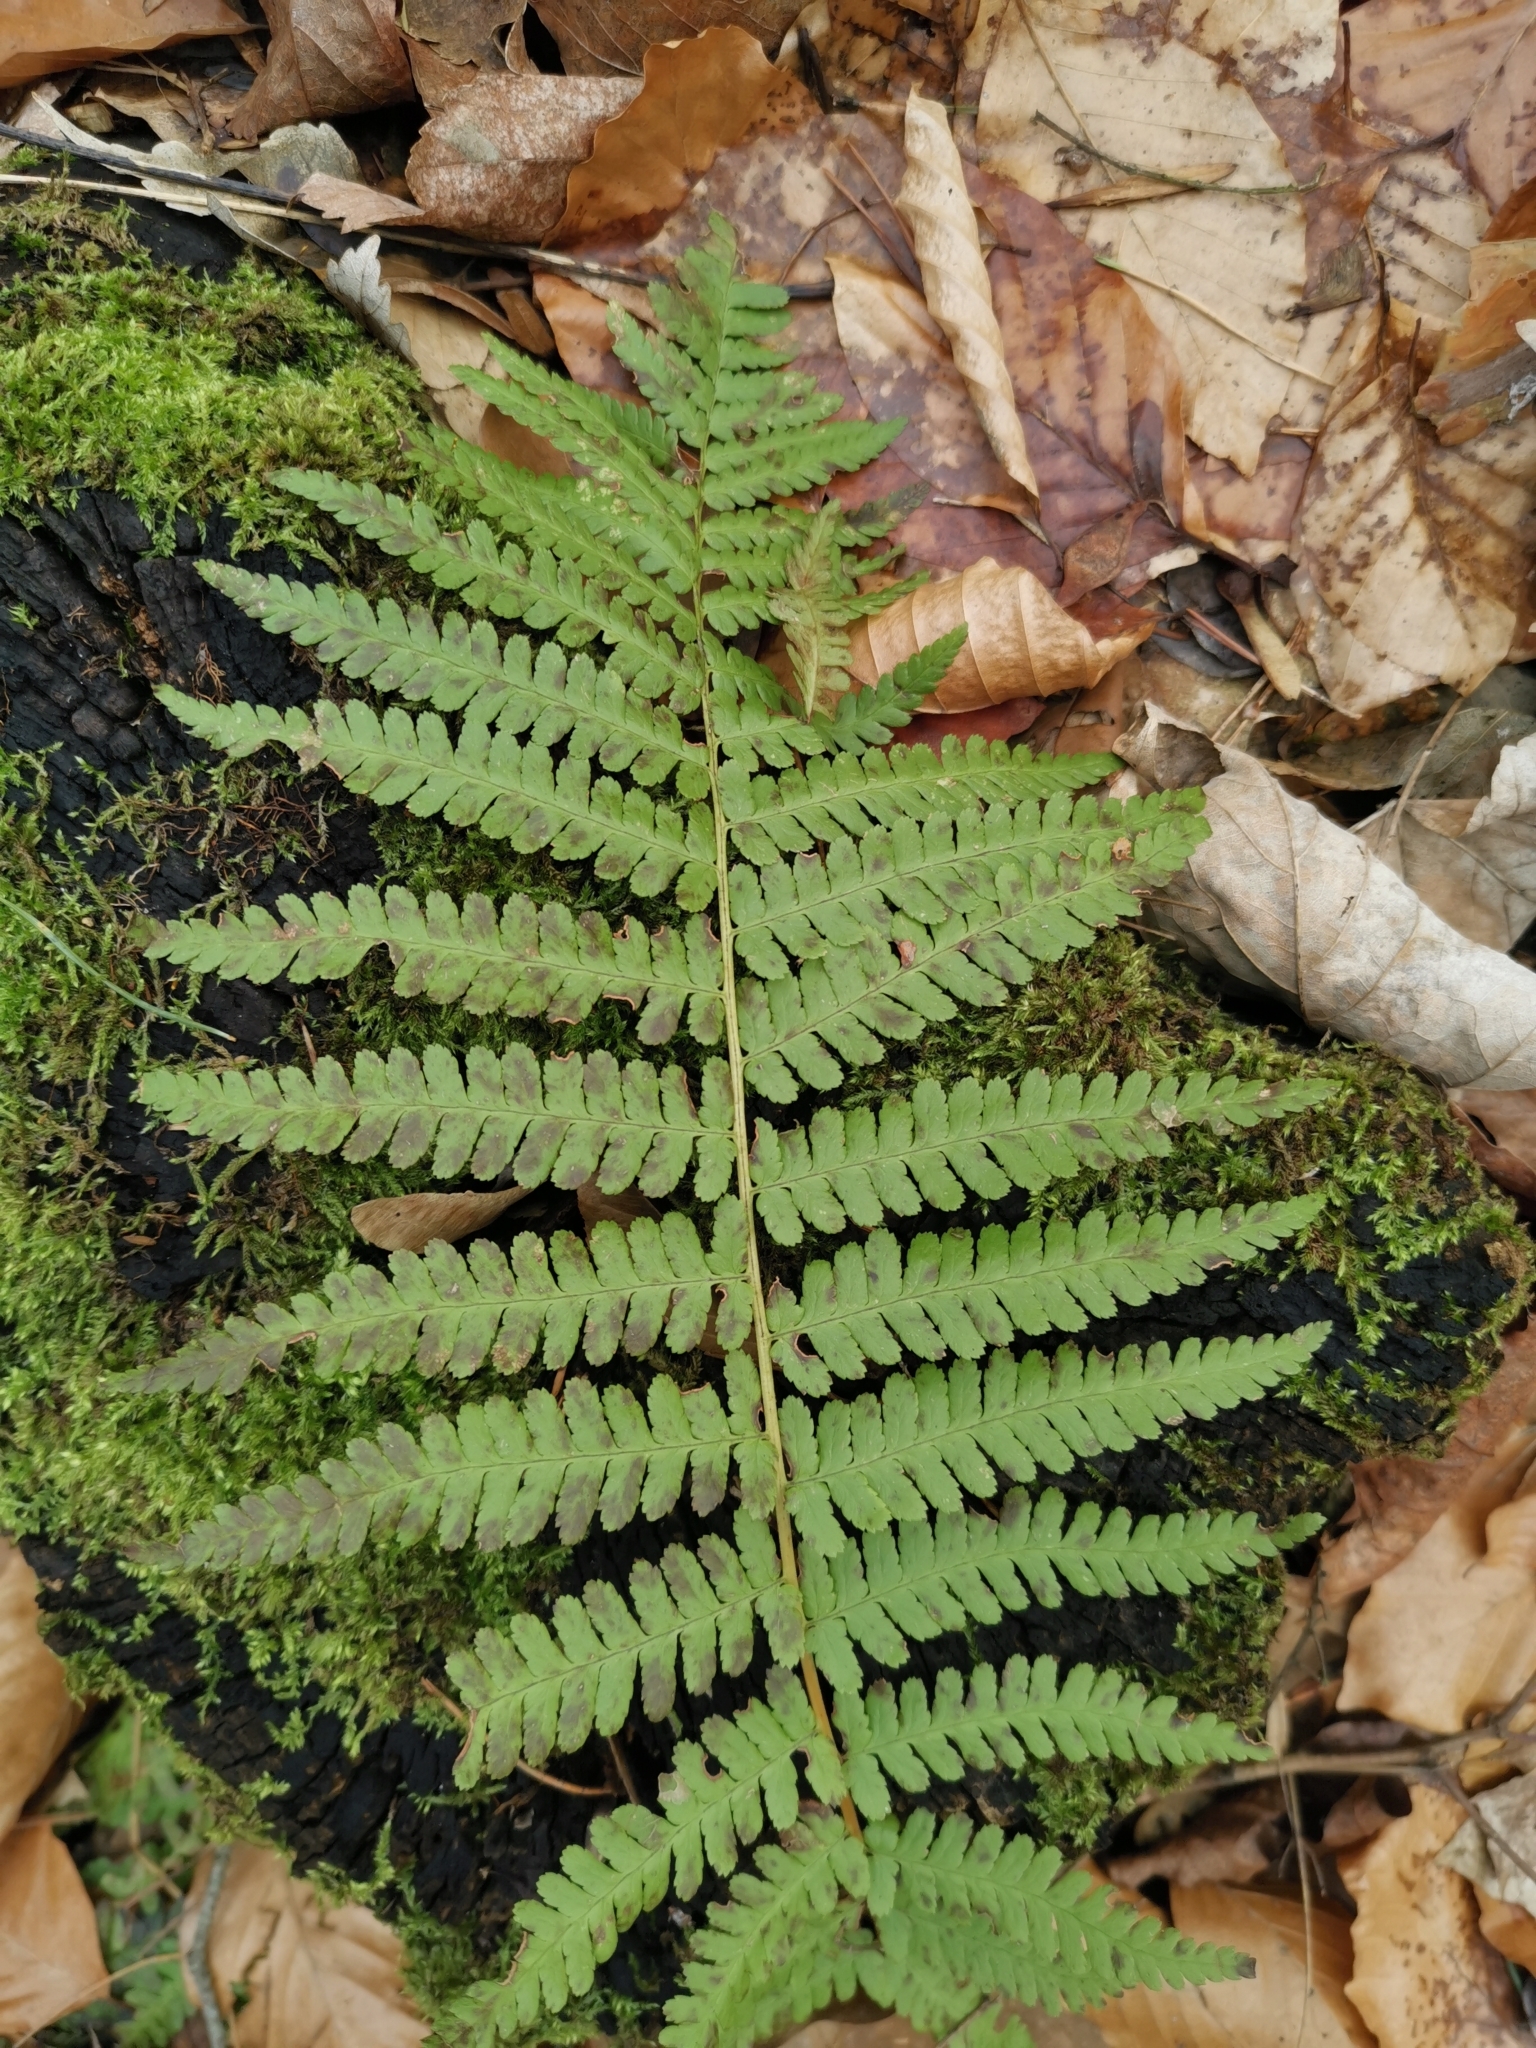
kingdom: Plantae
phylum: Tracheophyta
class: Polypodiopsida
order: Polypodiales
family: Dryopteridaceae
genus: Dryopteris
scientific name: Dryopteris filix-mas
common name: Male fern
